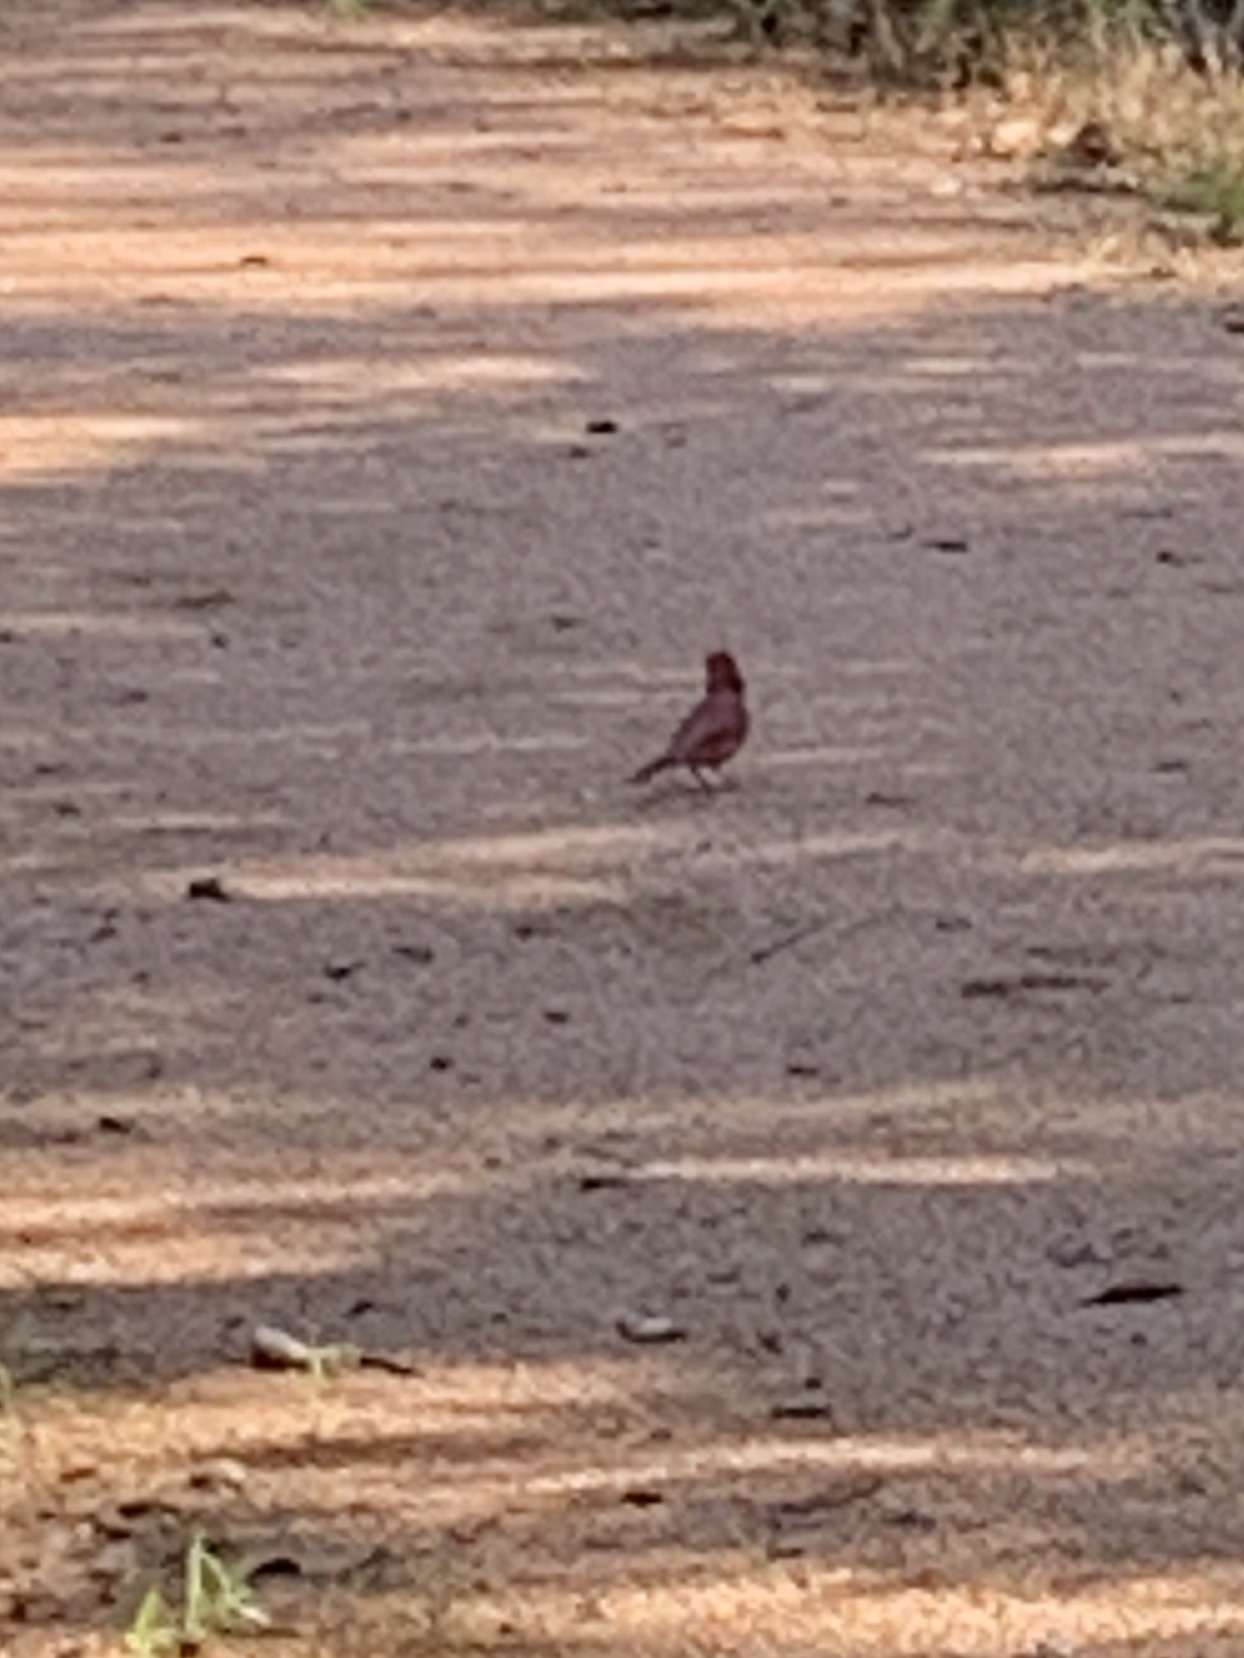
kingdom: Animalia
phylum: Chordata
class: Aves
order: Passeriformes
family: Cardinalidae
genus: Cardinalis
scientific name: Cardinalis cardinalis
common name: Northern cardinal
